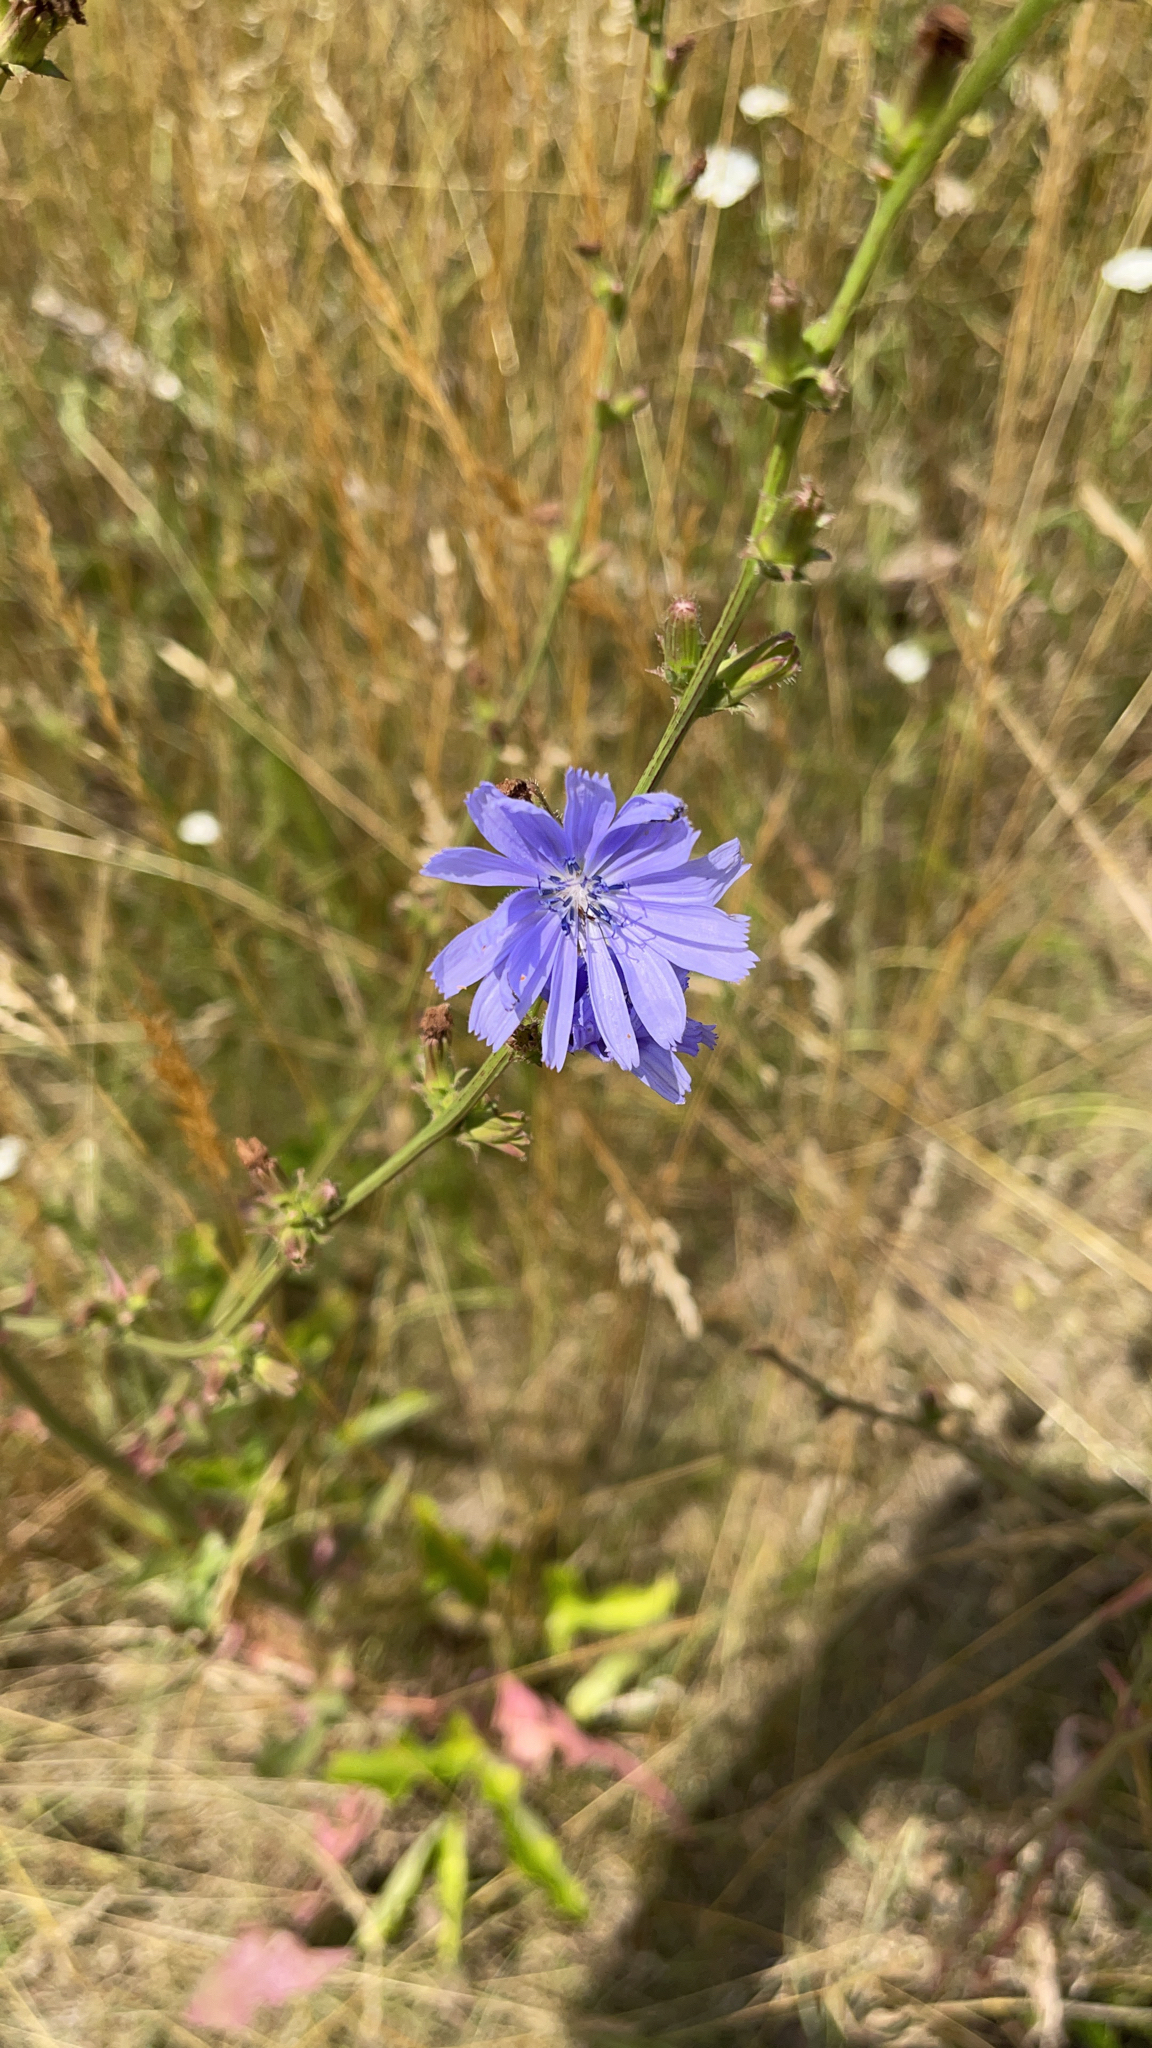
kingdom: Plantae
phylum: Tracheophyta
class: Magnoliopsida
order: Asterales
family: Asteraceae
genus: Cichorium
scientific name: Cichorium intybus
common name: Chicory
